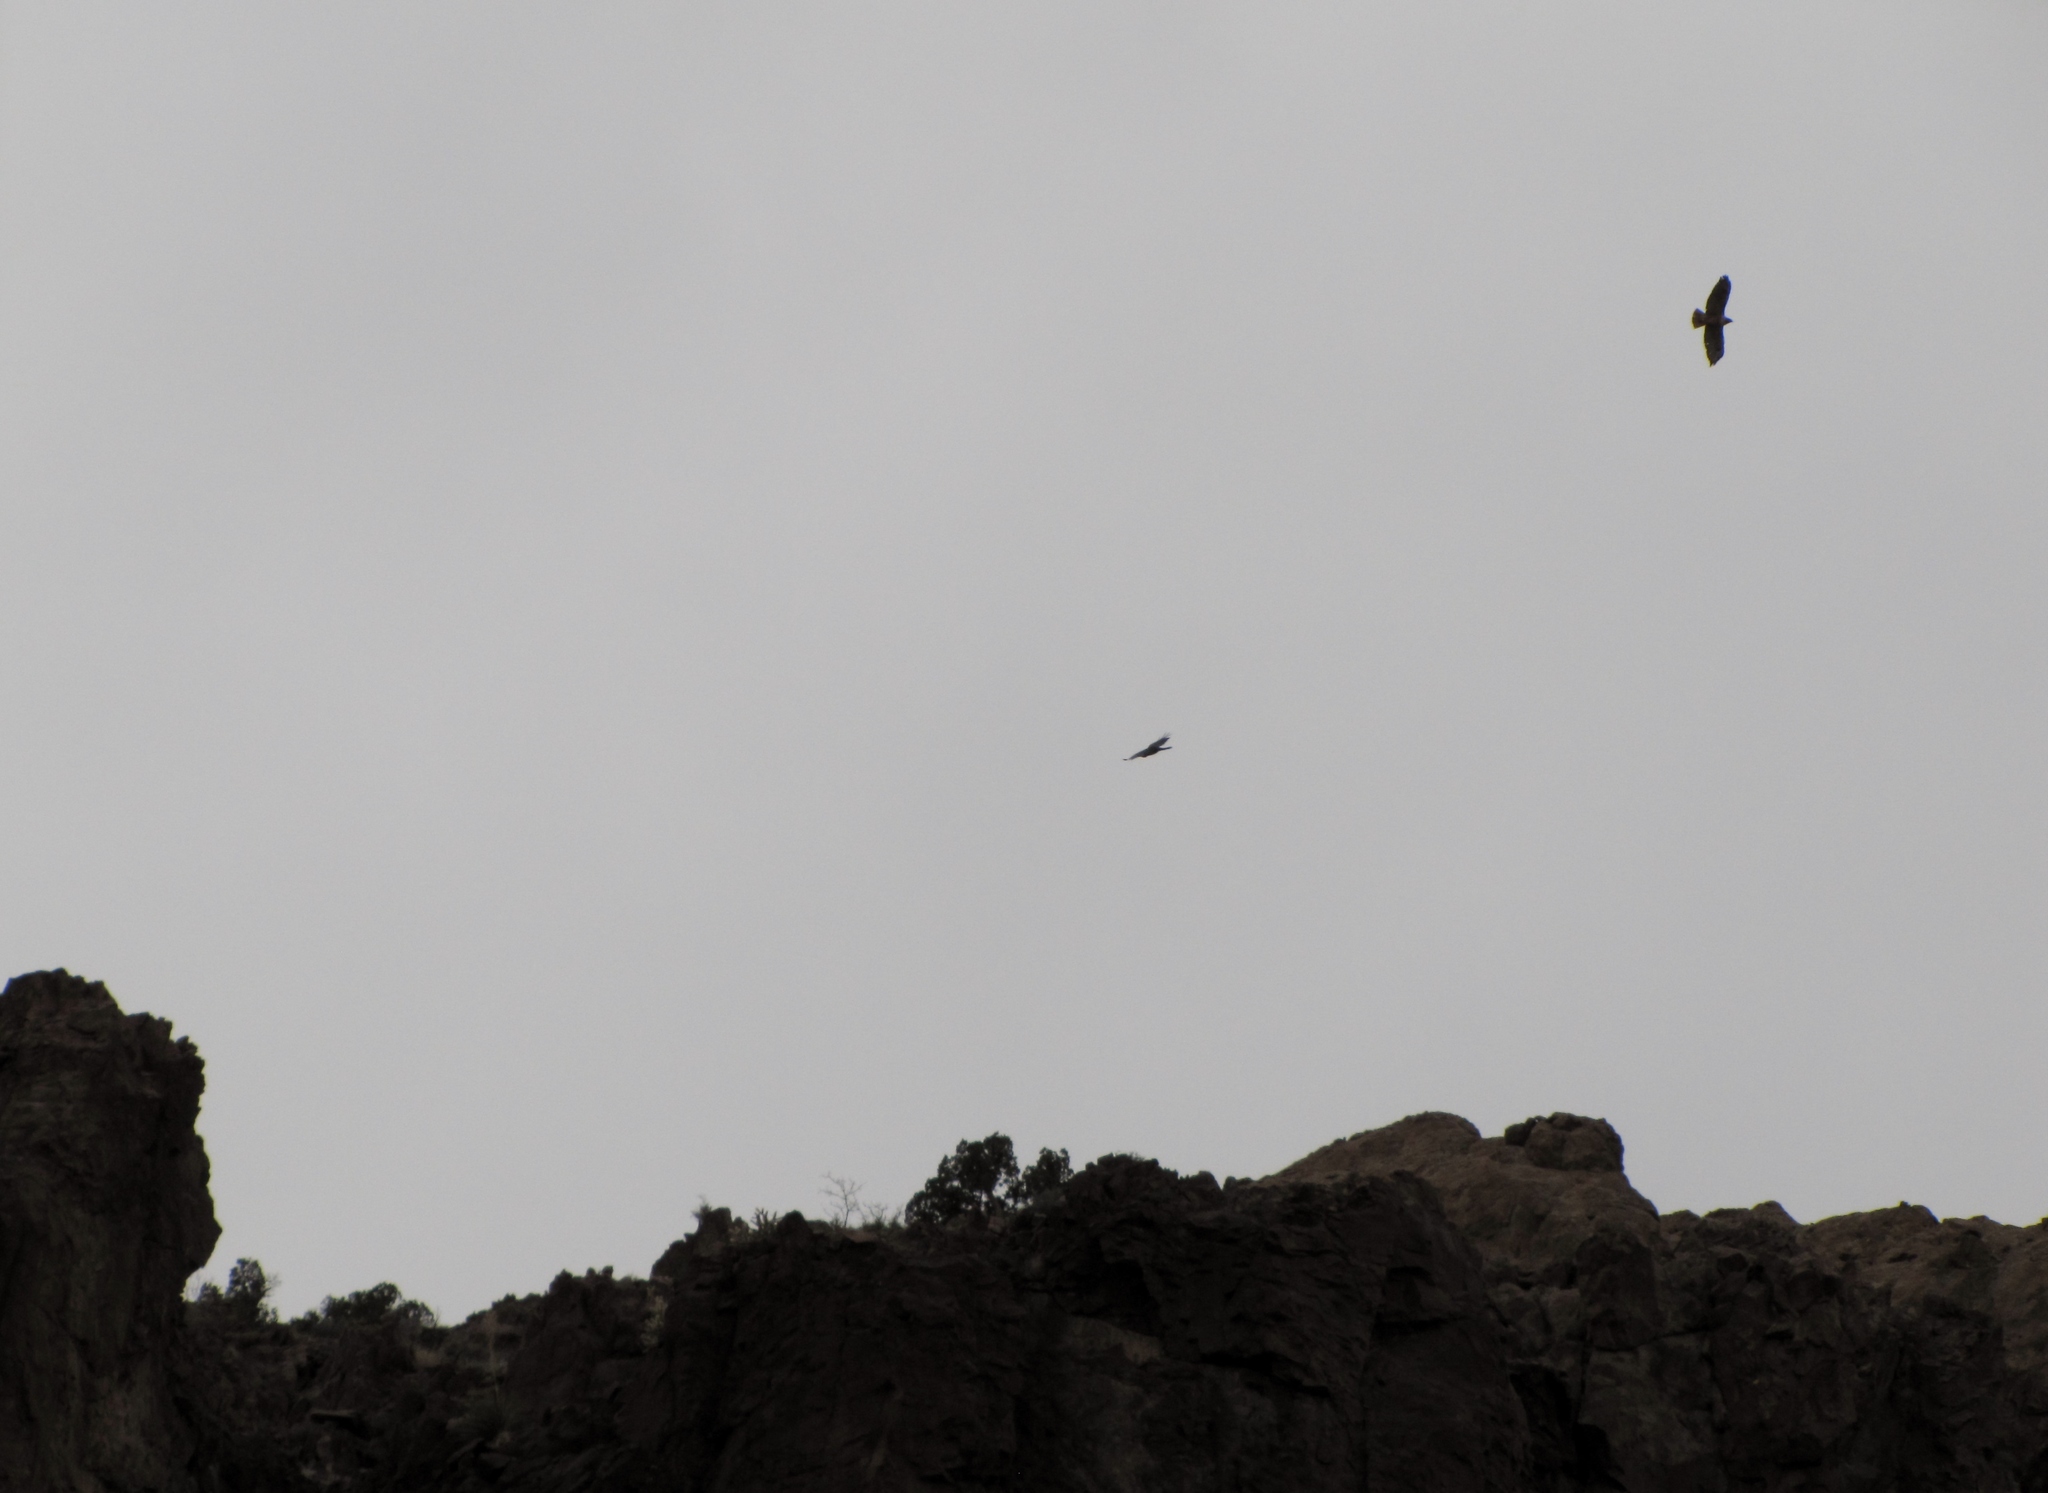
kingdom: Animalia
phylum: Chordata
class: Aves
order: Accipitriformes
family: Accipitridae
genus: Buteo
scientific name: Buteo jamaicensis
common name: Red-tailed hawk
